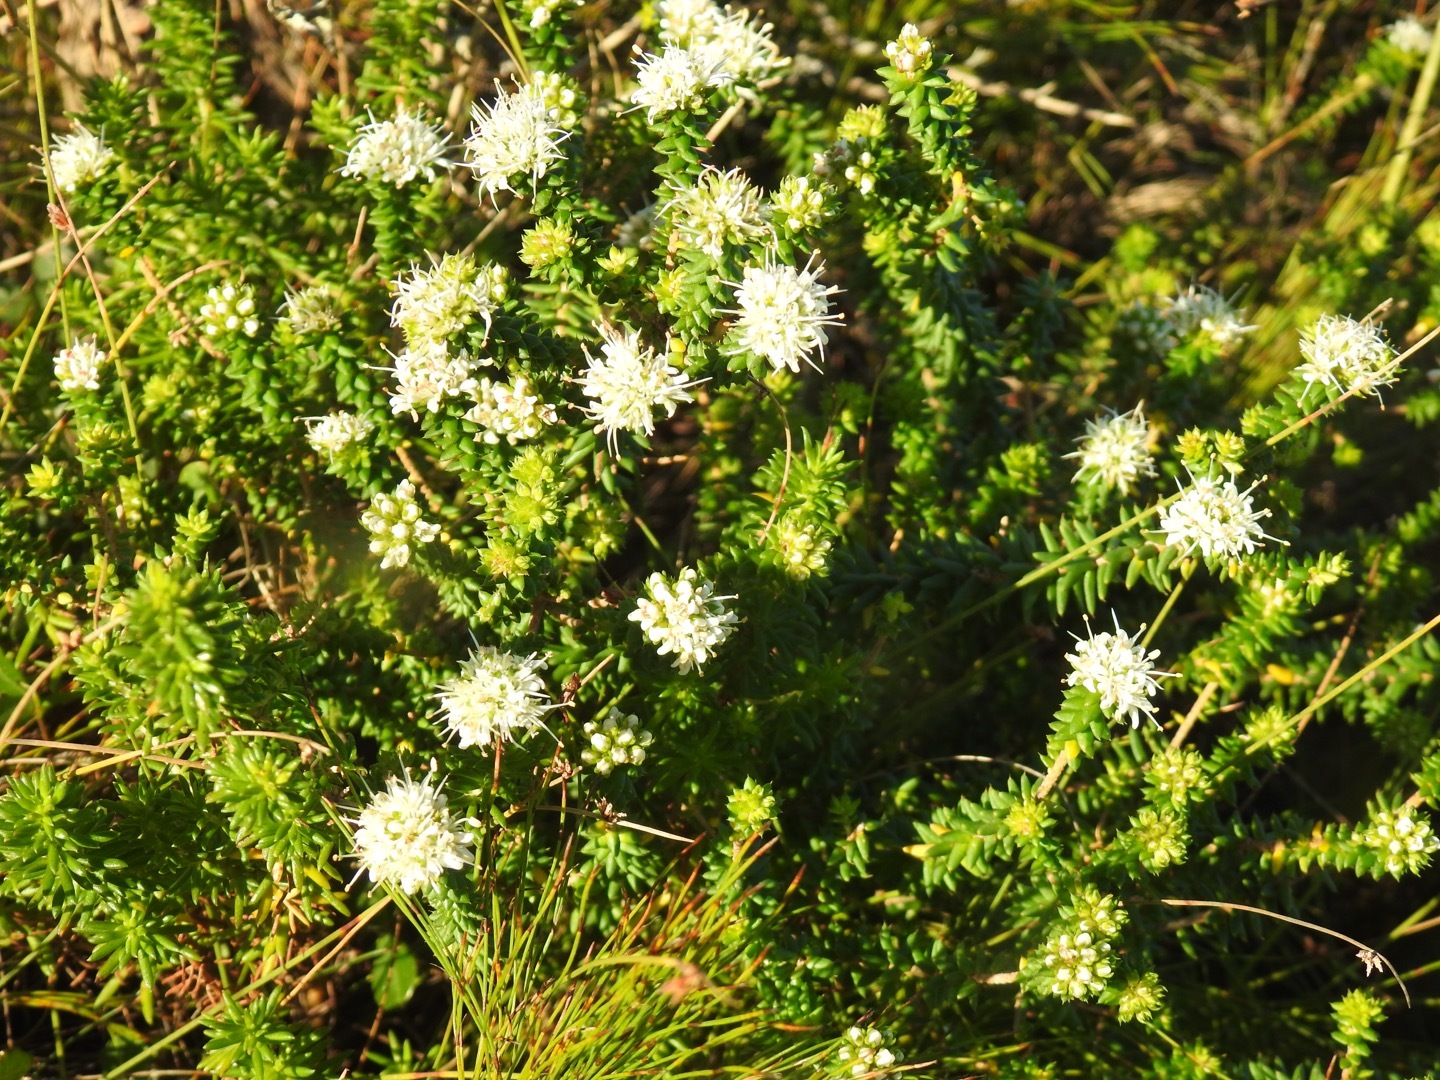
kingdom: Plantae
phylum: Tracheophyta
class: Magnoliopsida
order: Sapindales
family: Rutaceae
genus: Agathosma
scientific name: Agathosma apiculata
